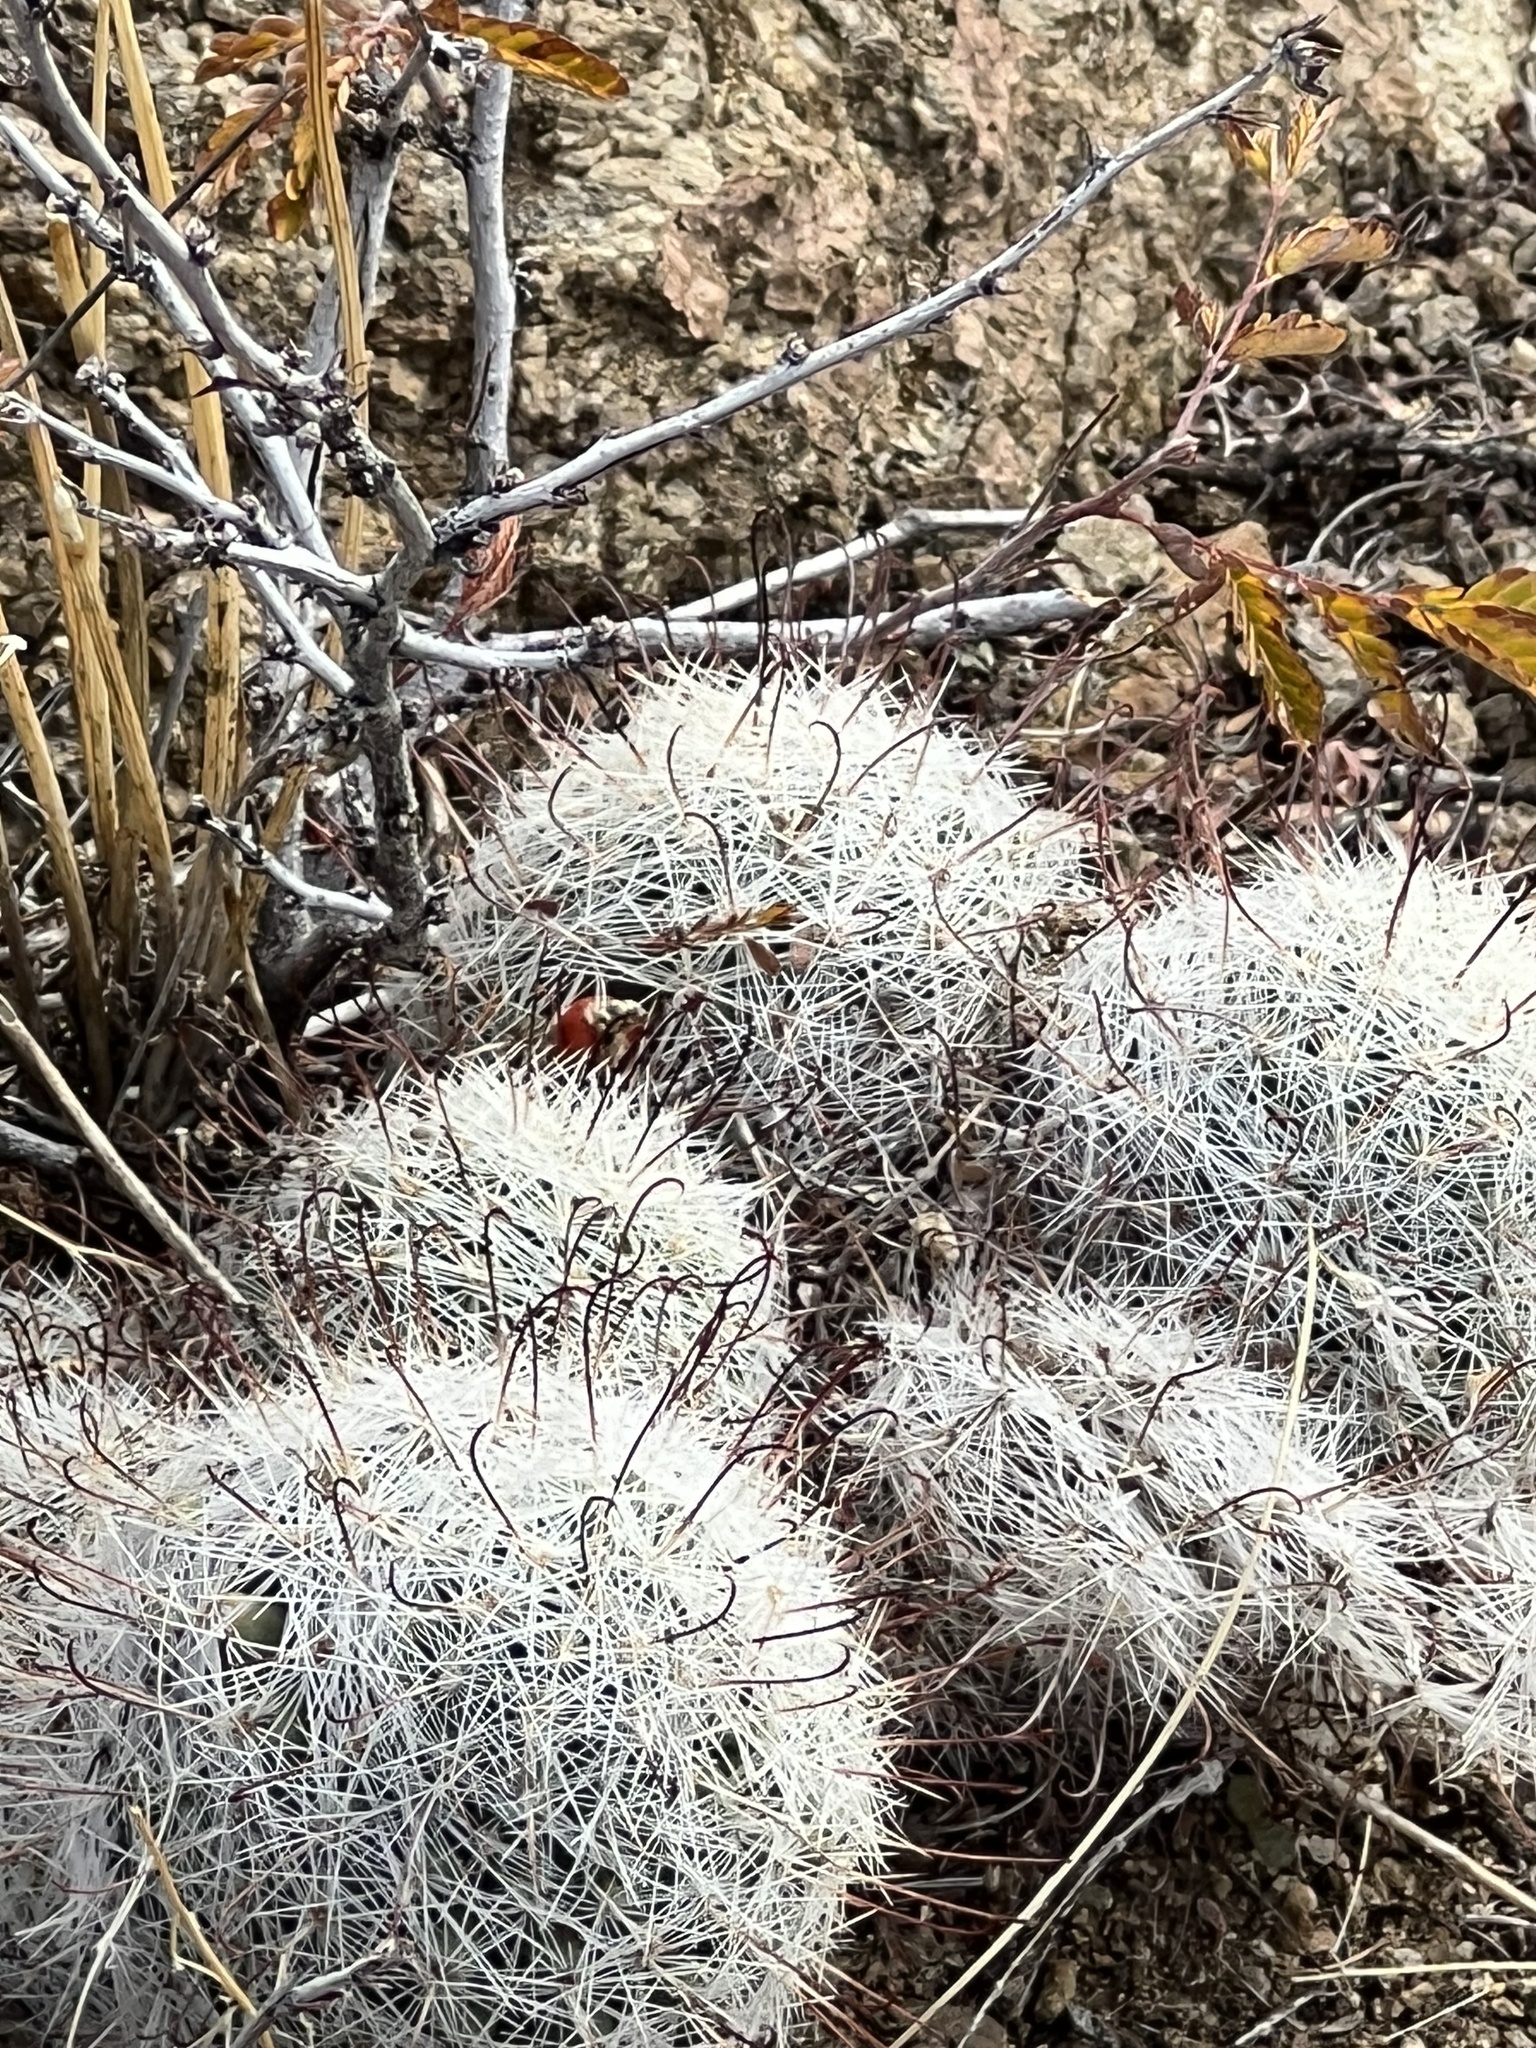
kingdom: Plantae
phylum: Tracheophyta
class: Magnoliopsida
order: Caryophyllales
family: Cactaceae
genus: Cochemiea
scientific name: Cochemiea grahamii
